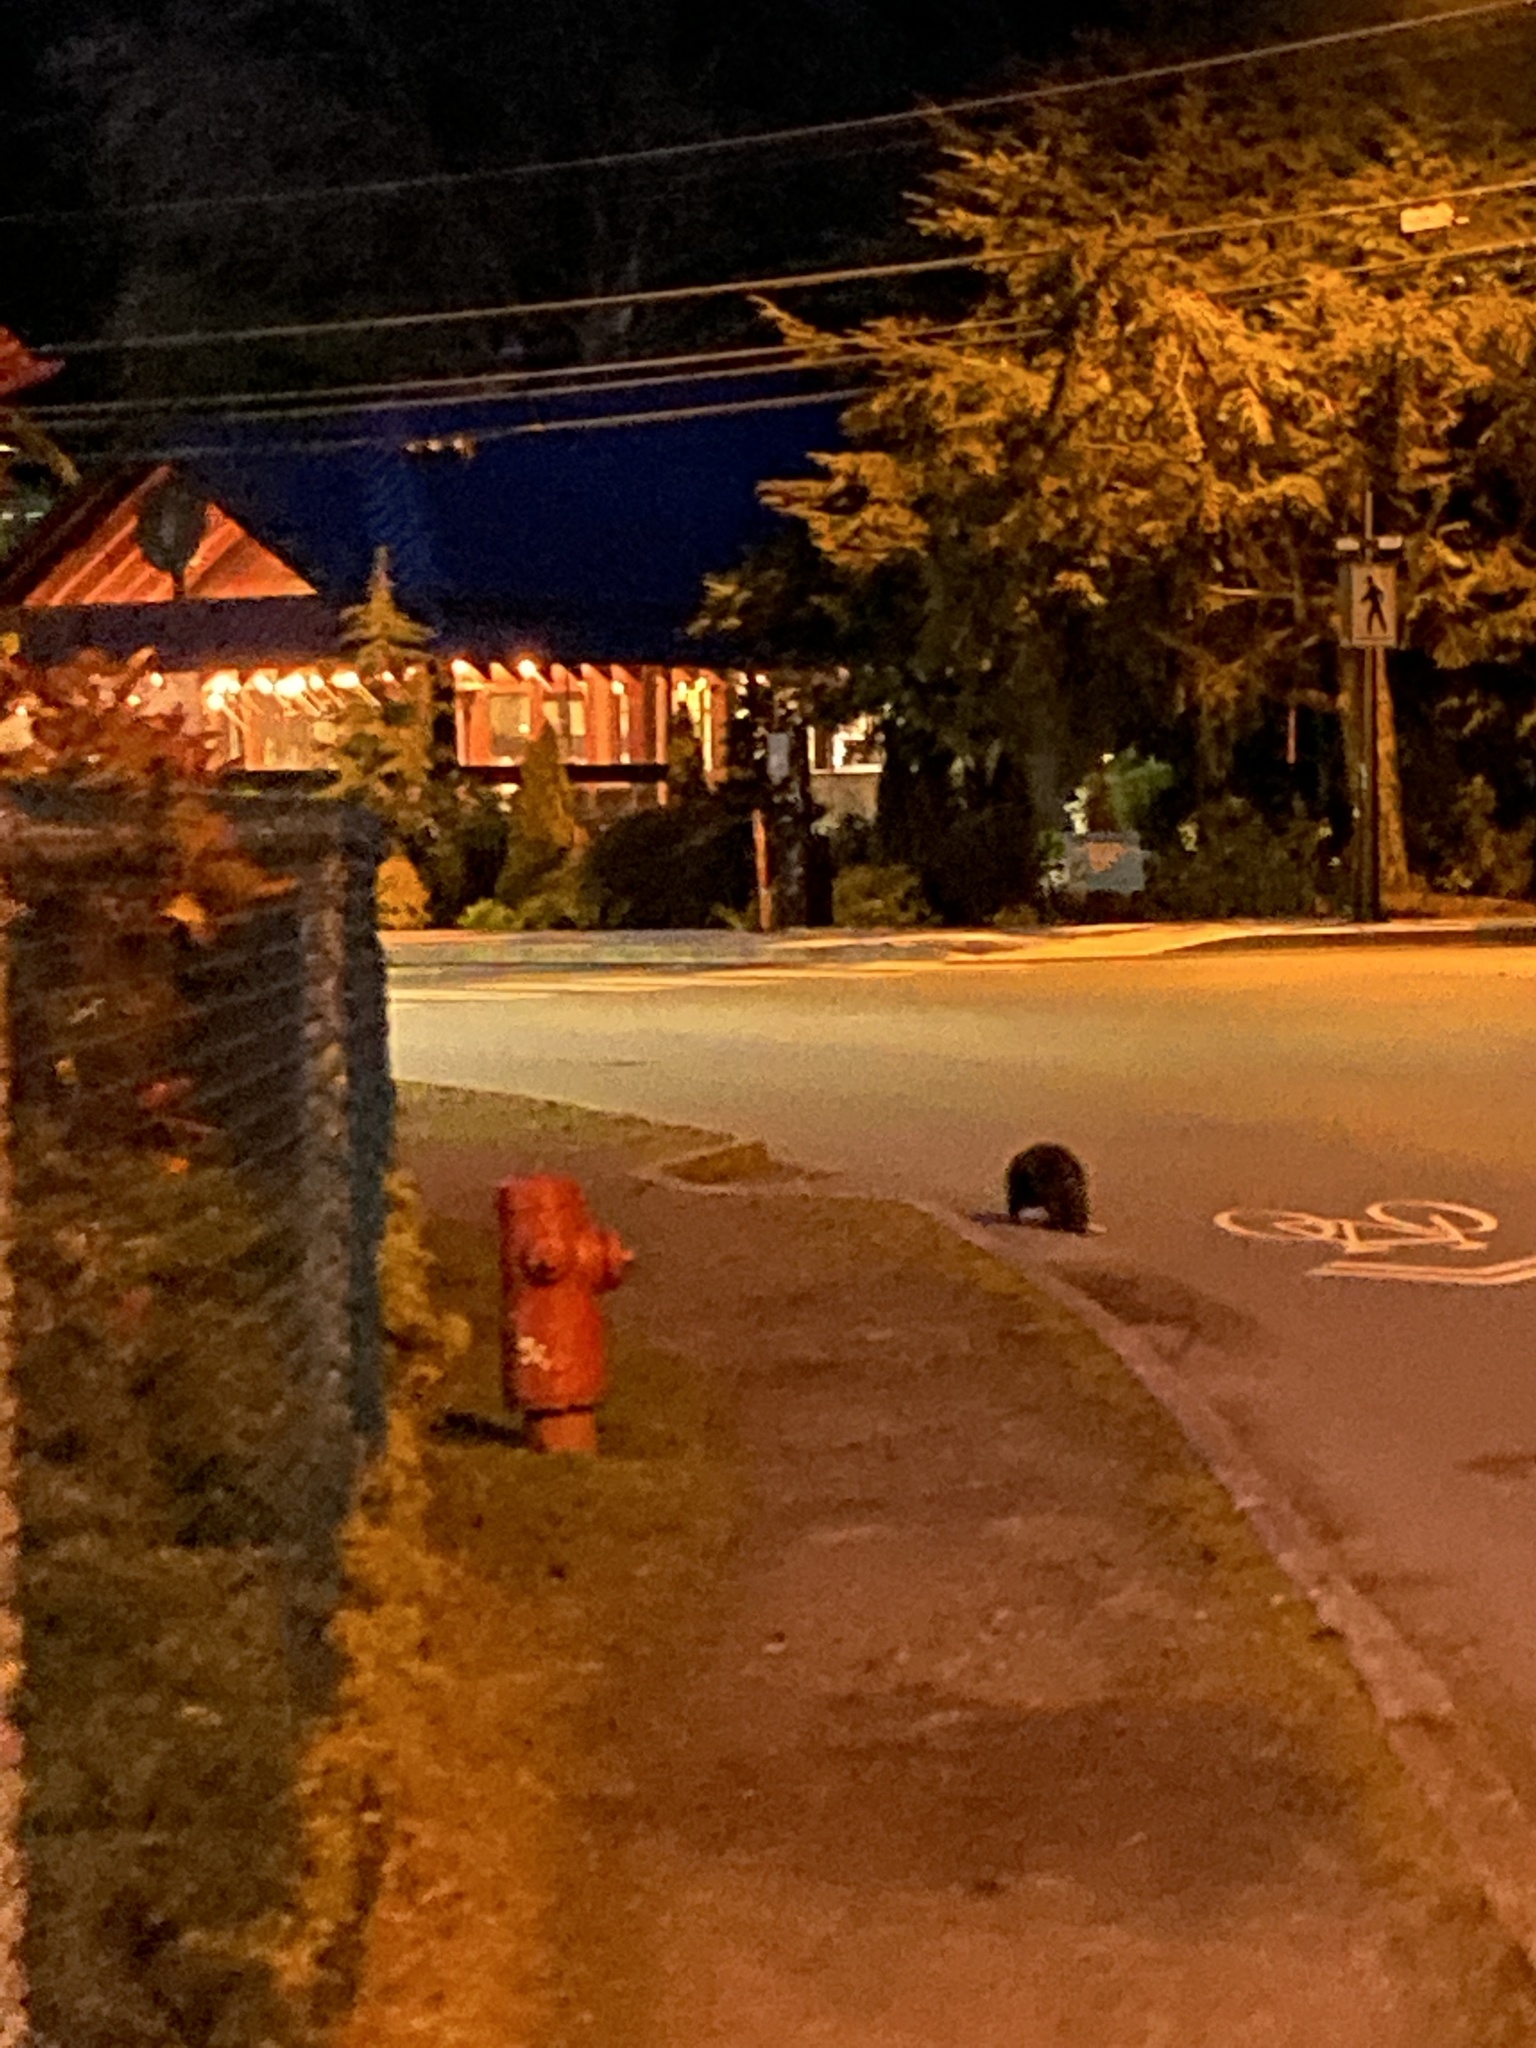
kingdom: Animalia
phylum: Chordata
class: Mammalia
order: Rodentia
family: Castoridae
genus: Castor
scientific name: Castor canadensis
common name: American beaver
